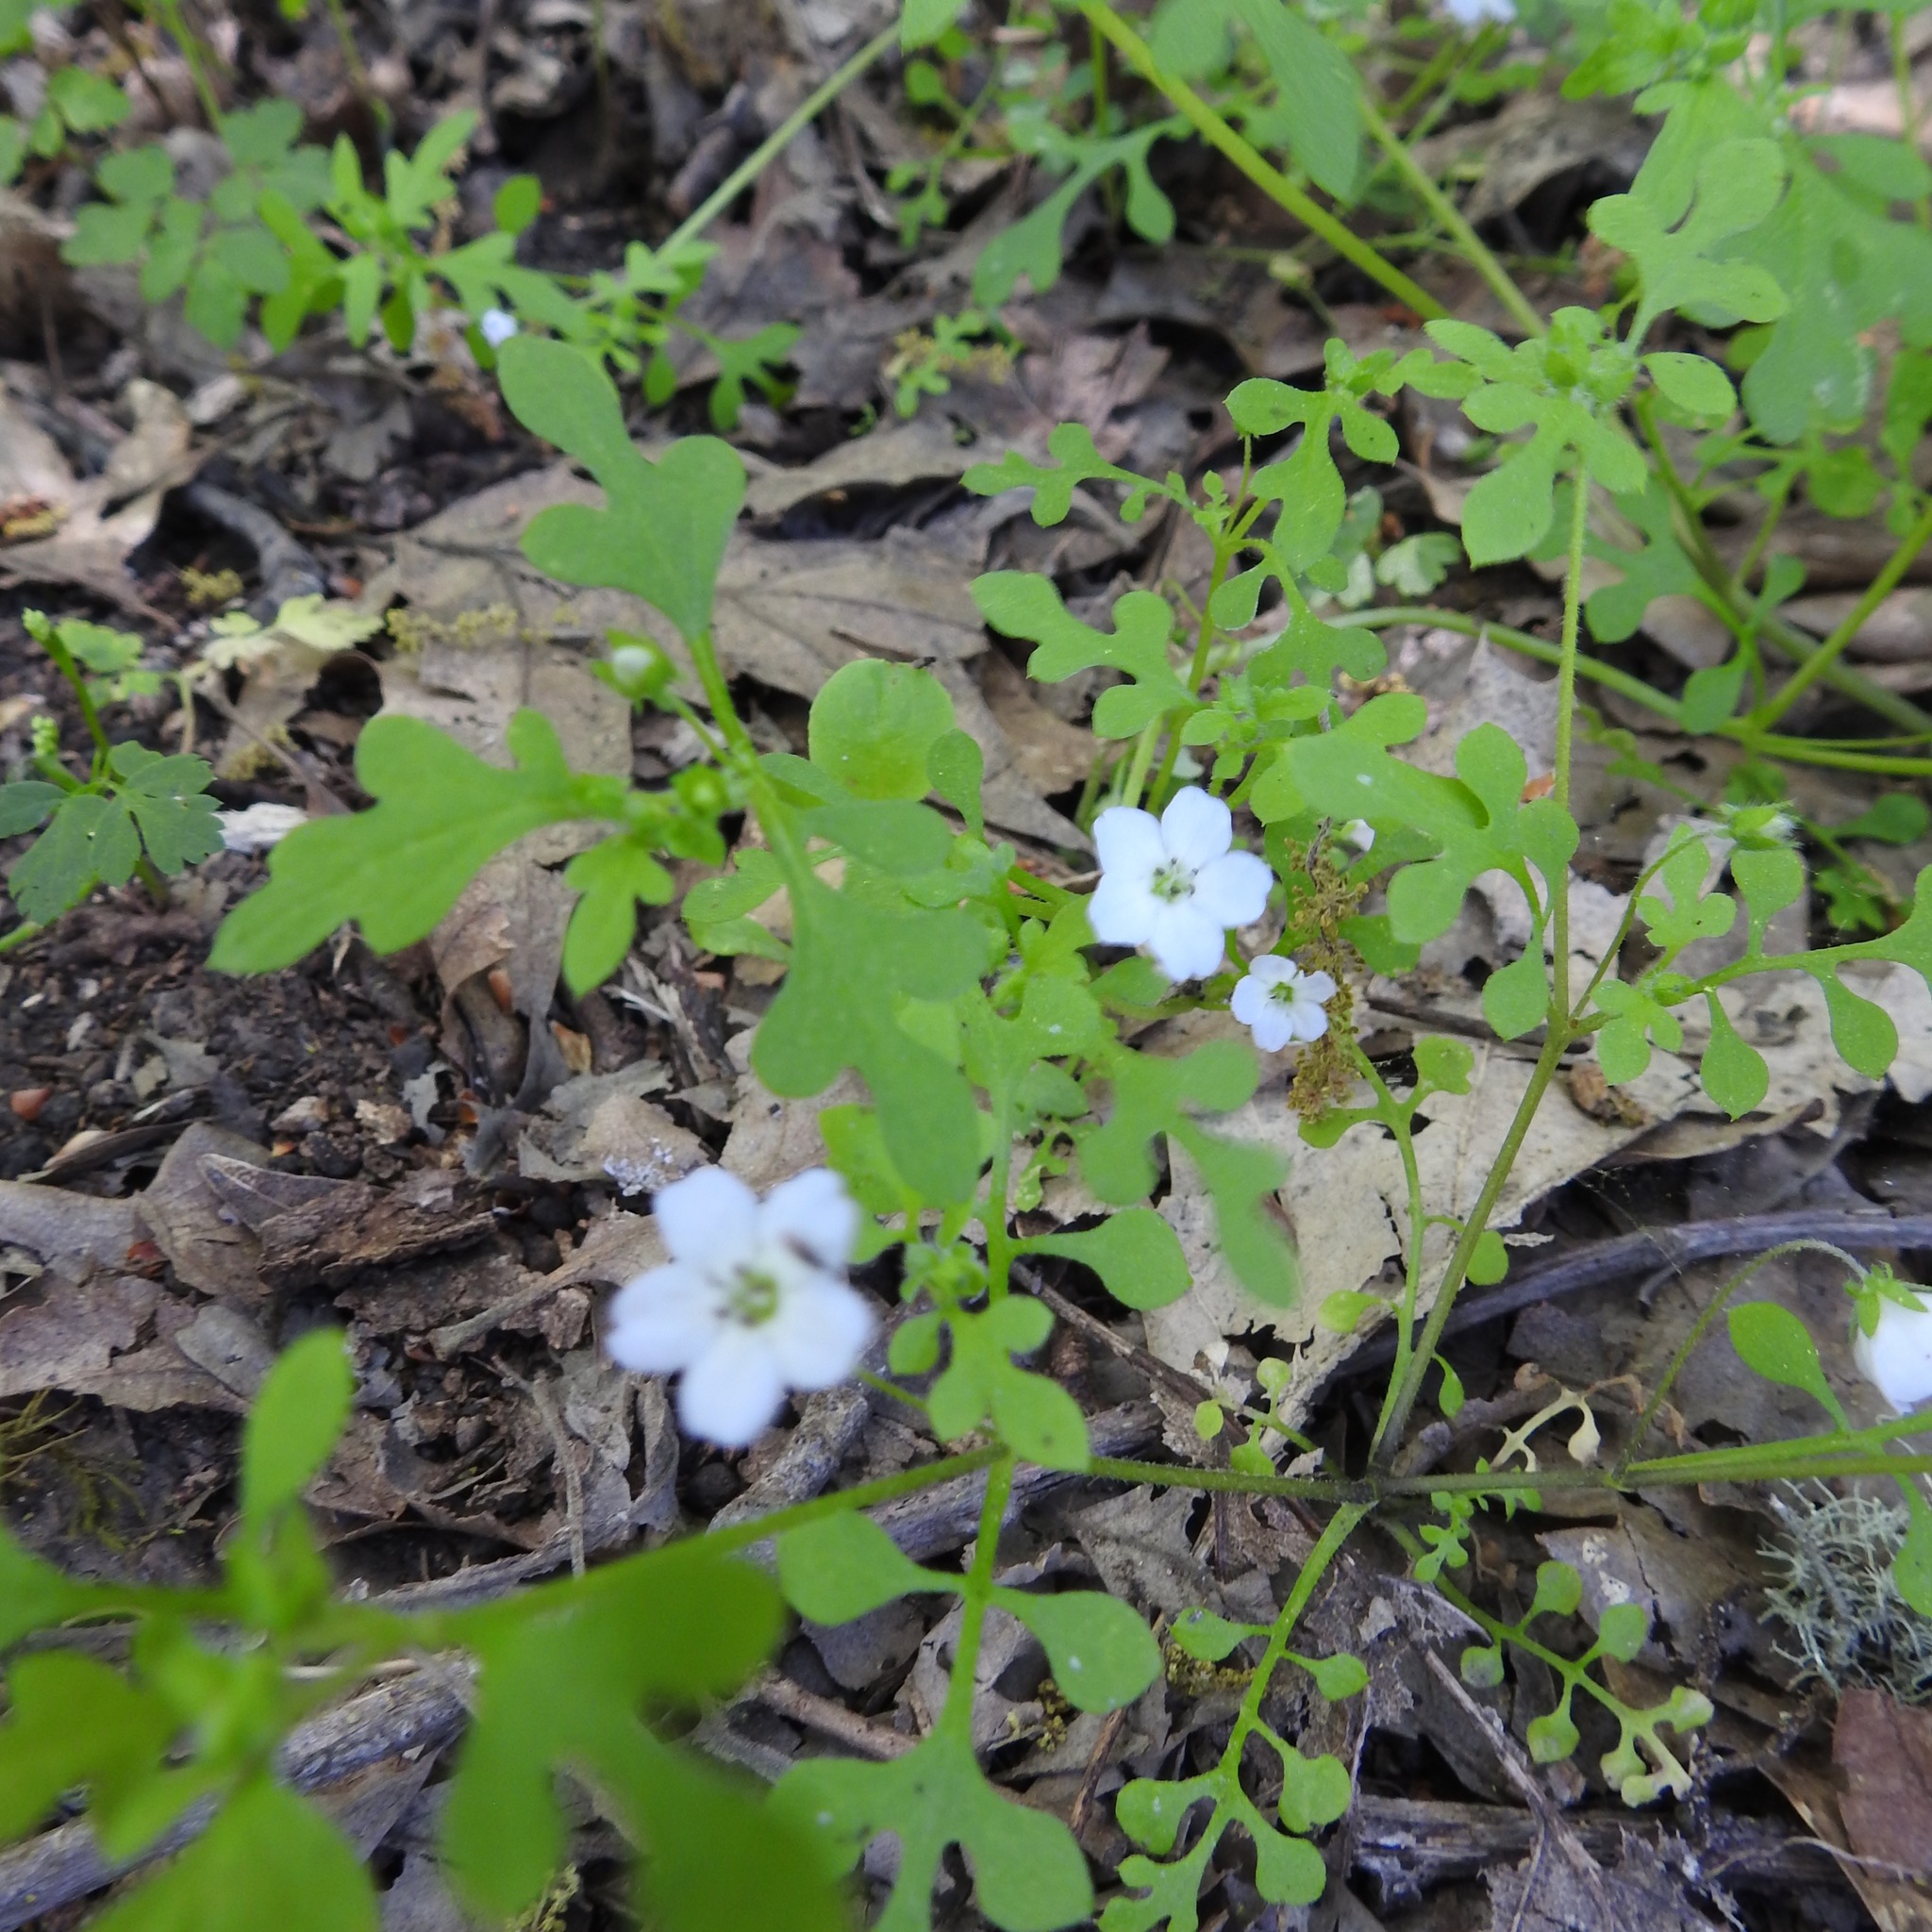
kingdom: Plantae
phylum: Tracheophyta
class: Magnoliopsida
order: Boraginales
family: Hydrophyllaceae
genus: Nemophila
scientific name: Nemophila heterophylla
